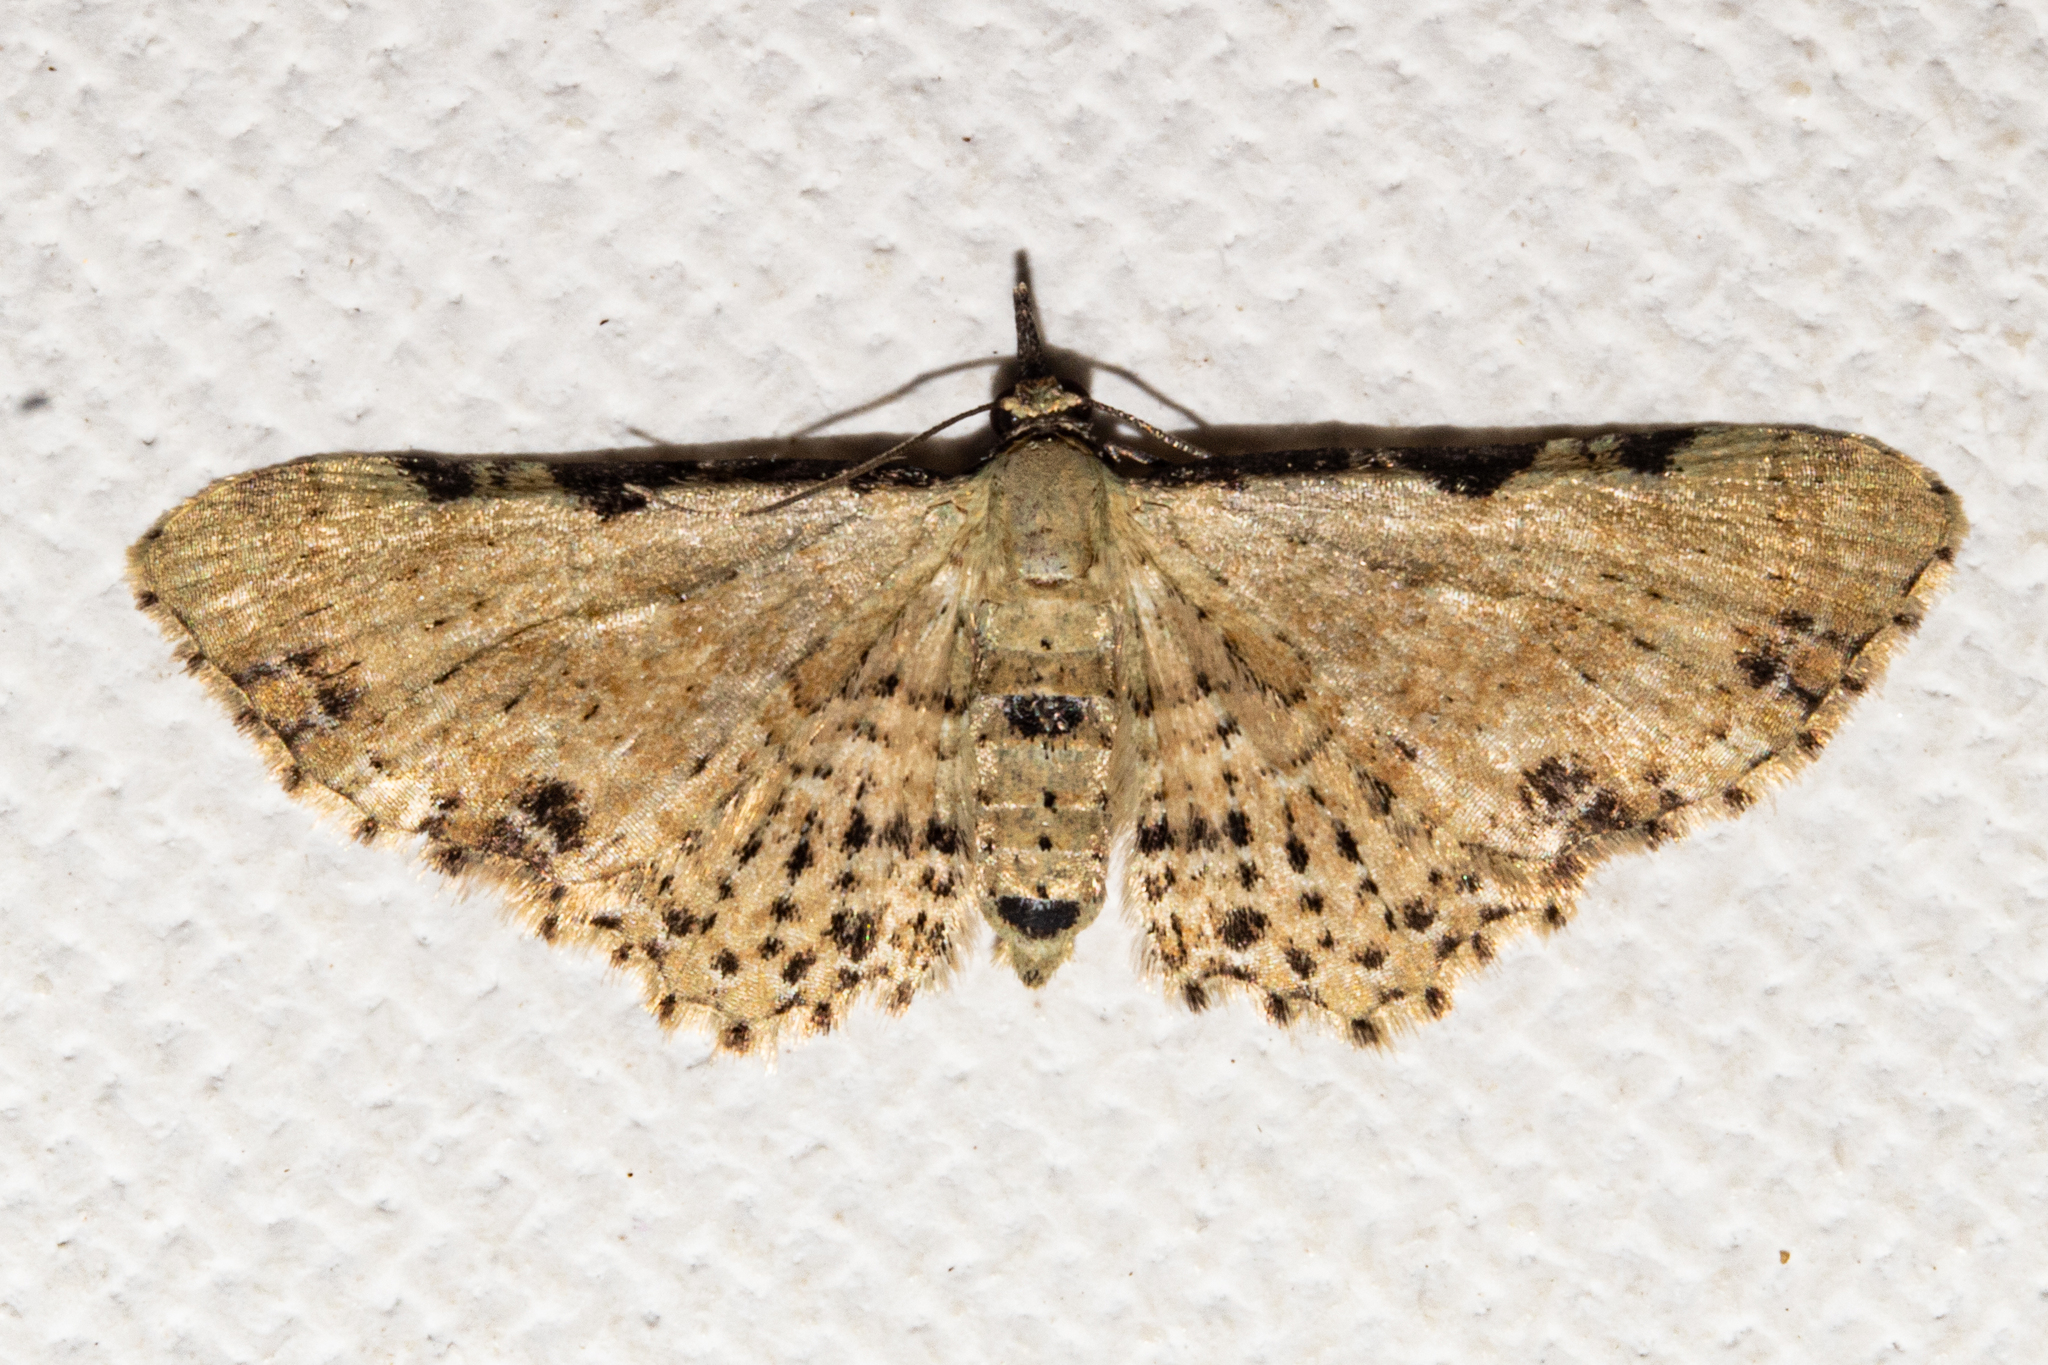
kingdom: Animalia
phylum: Arthropoda
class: Insecta
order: Lepidoptera
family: Geometridae
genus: Pasiphila
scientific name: Pasiphila fumipalpata
